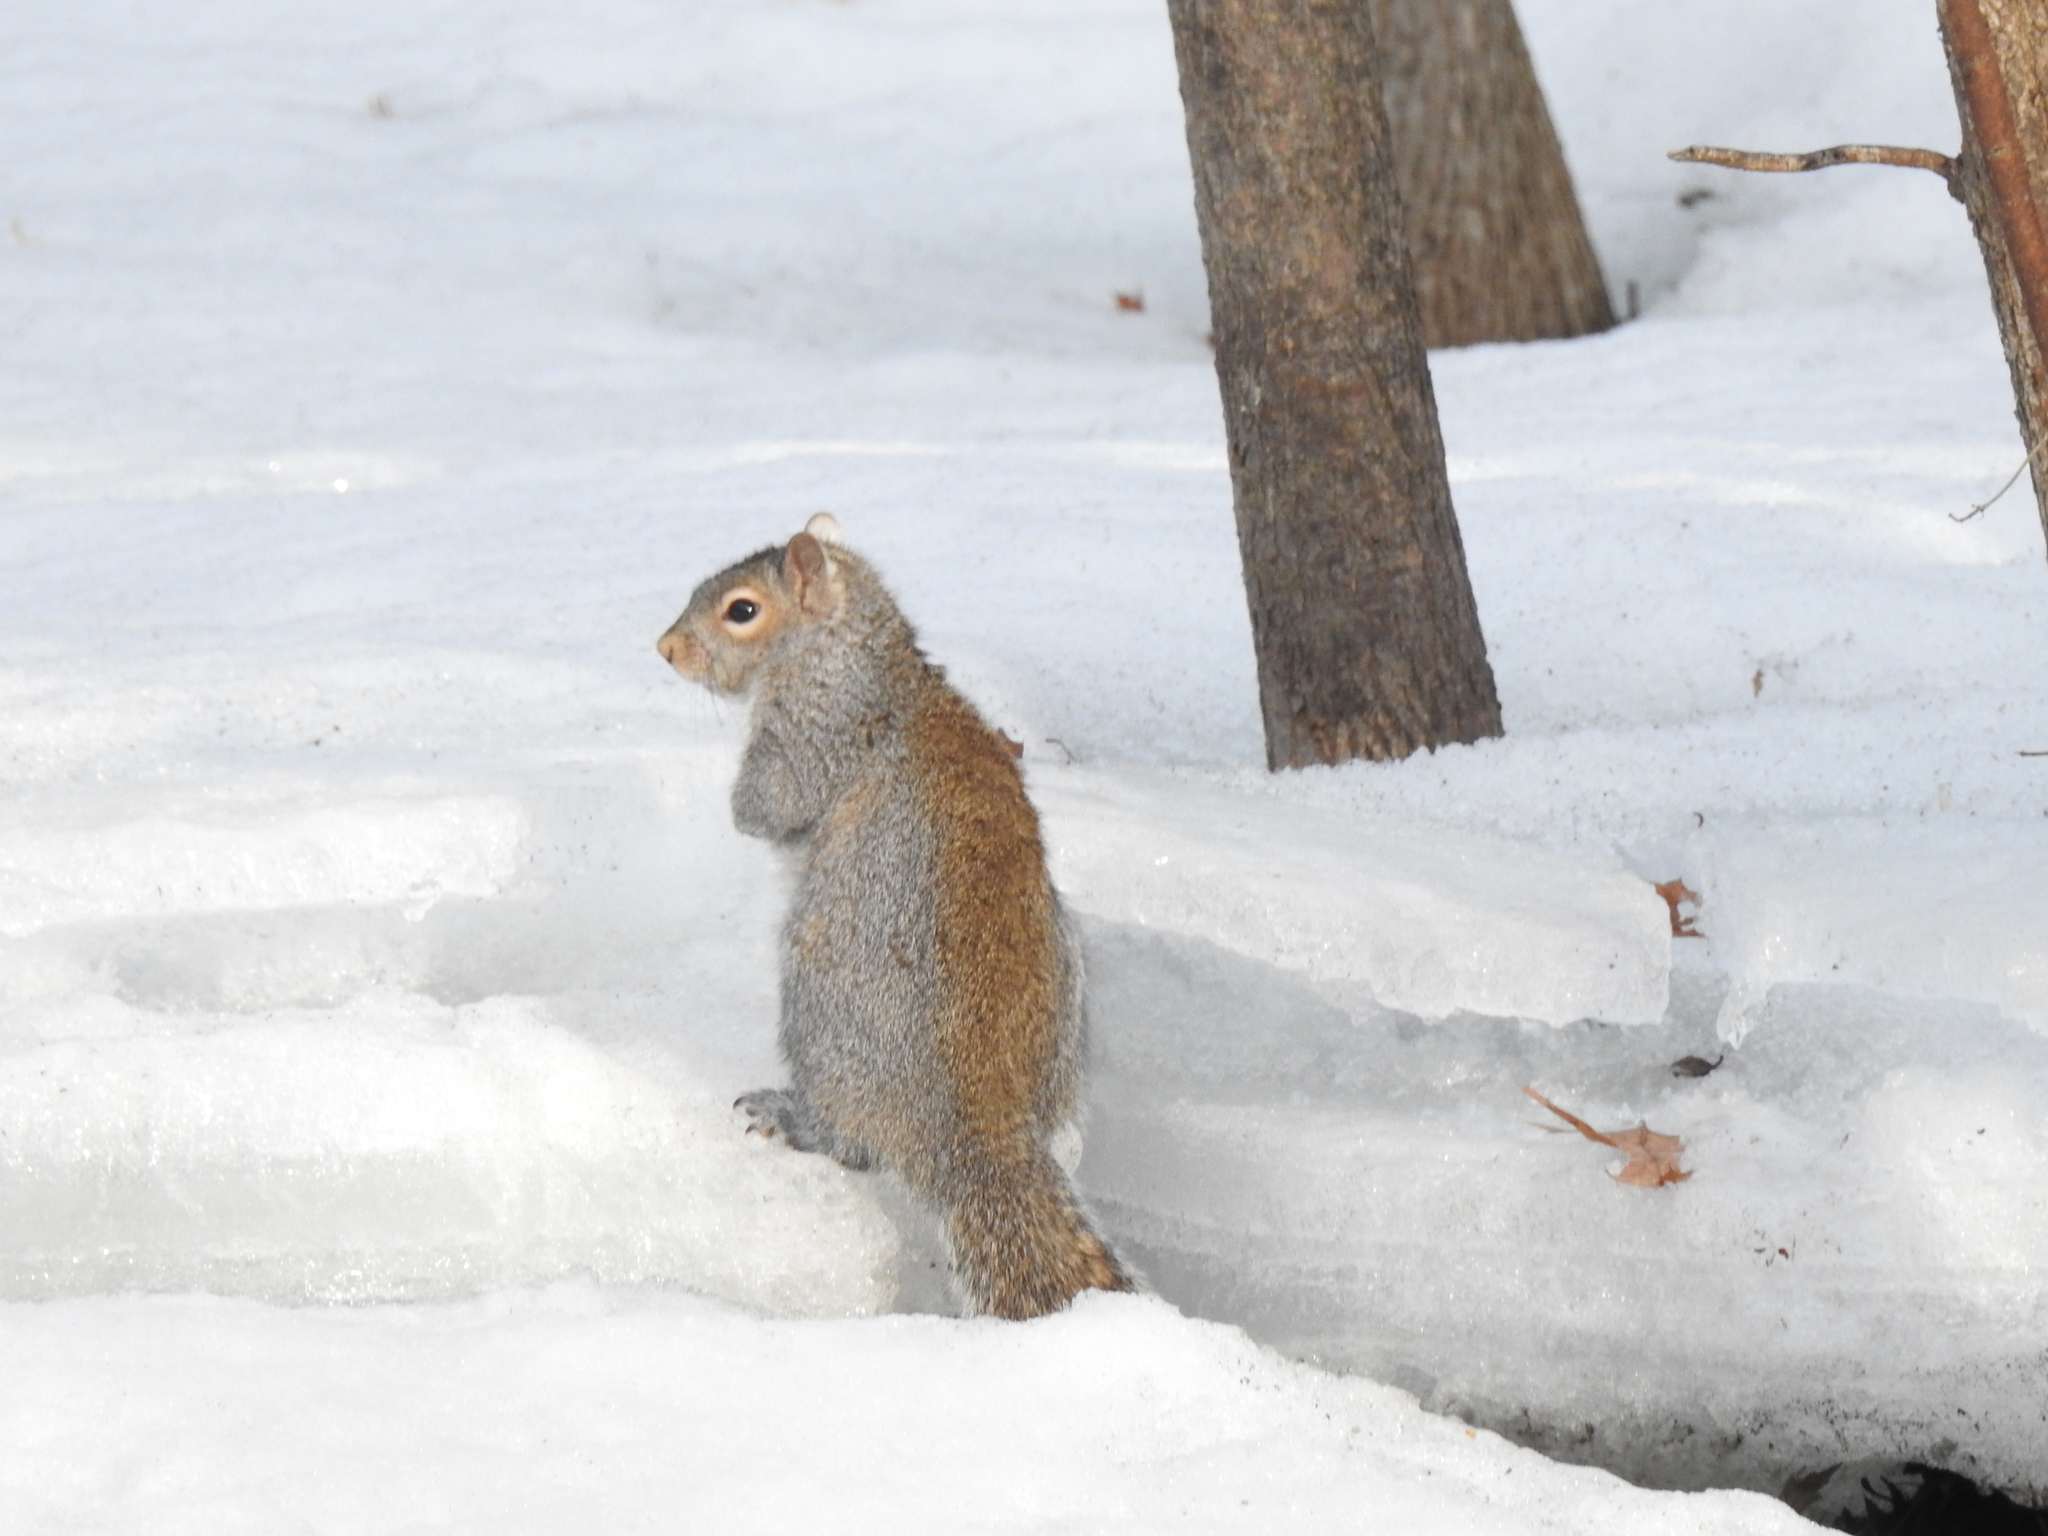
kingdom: Animalia
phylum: Chordata
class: Mammalia
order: Rodentia
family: Sciuridae
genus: Sciurus
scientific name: Sciurus carolinensis
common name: Eastern gray squirrel
